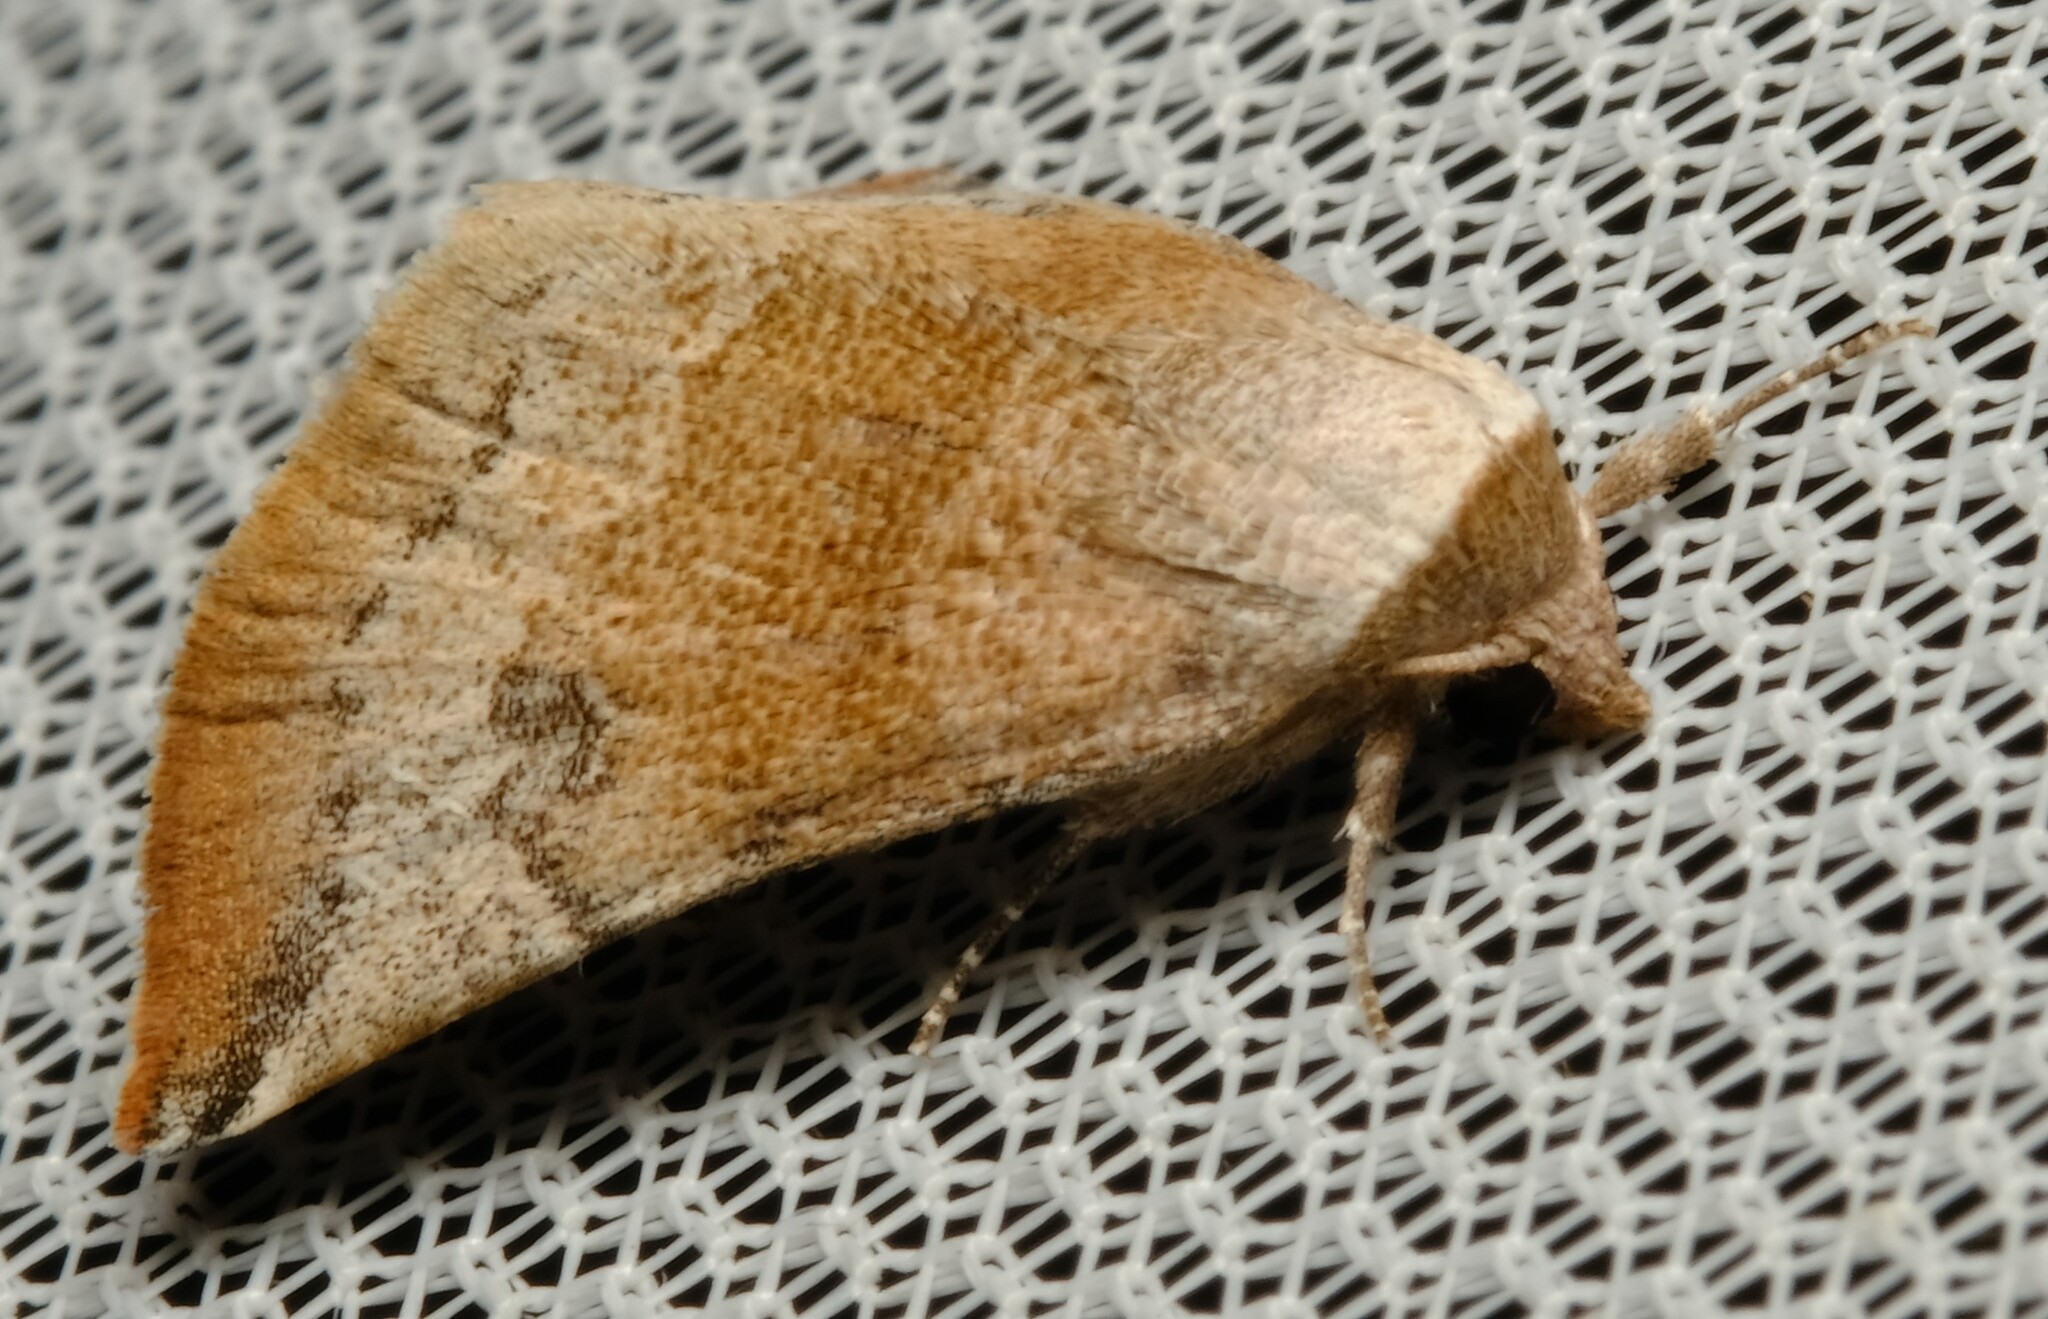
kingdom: Animalia
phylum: Arthropoda
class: Insecta
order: Lepidoptera
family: Noctuidae
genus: Mataeomera
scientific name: Mataeomera mesotaenia
